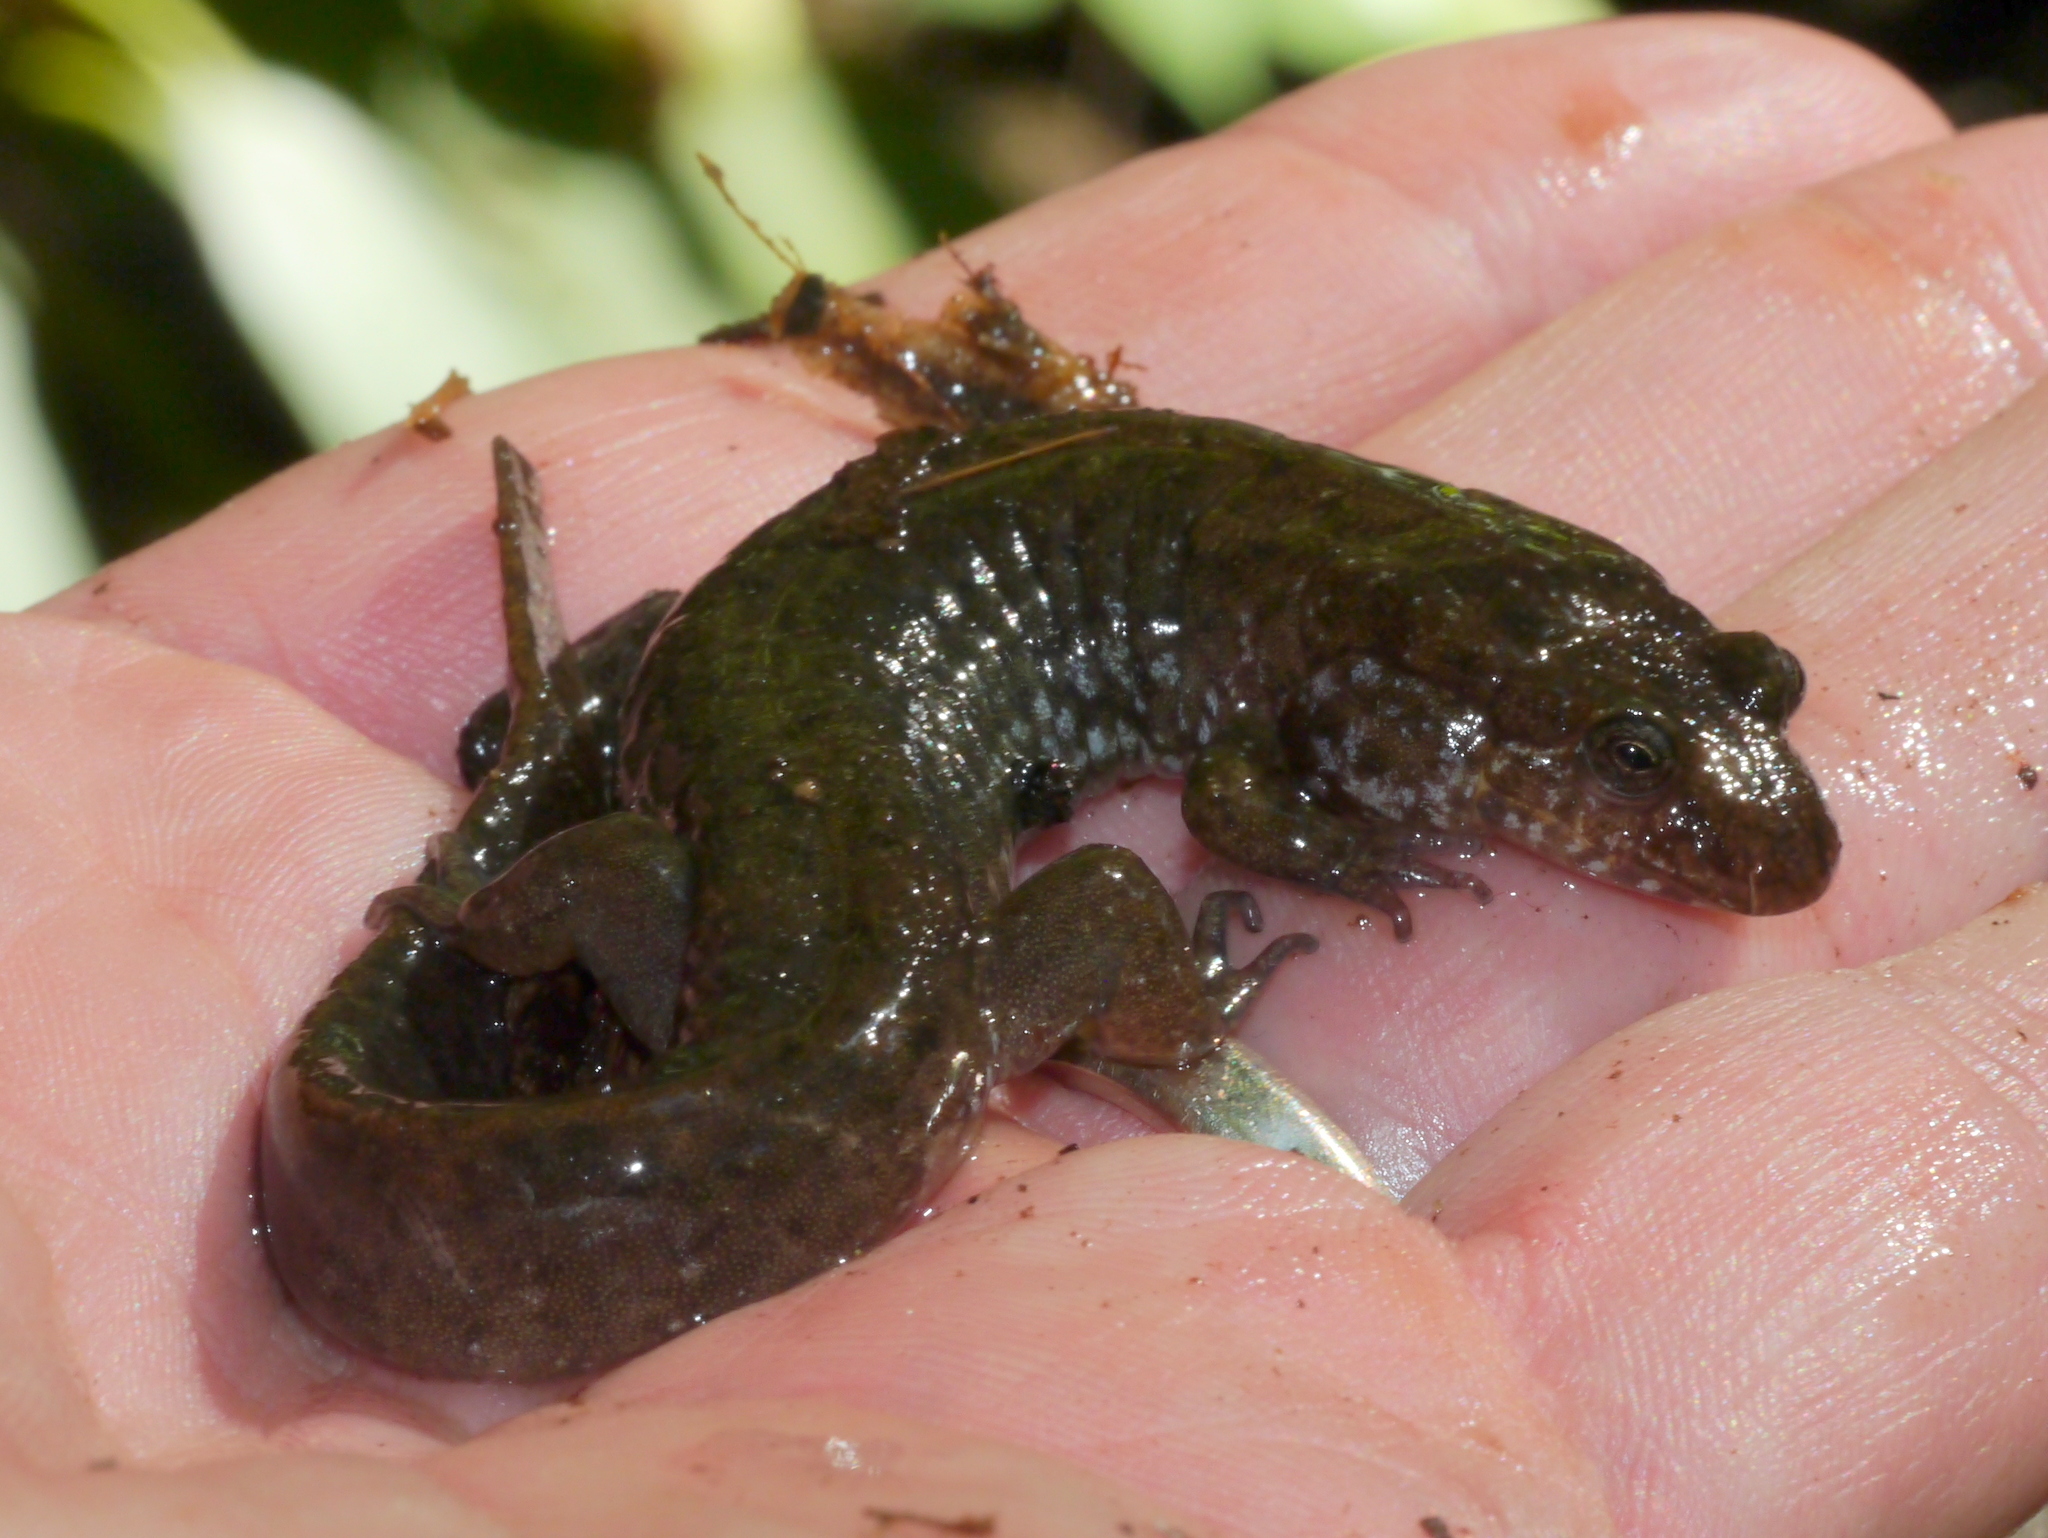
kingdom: Animalia
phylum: Chordata
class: Amphibia
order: Caudata
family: Plethodontidae
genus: Desmognathus
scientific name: Desmognathus monticola
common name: Seal salamander
